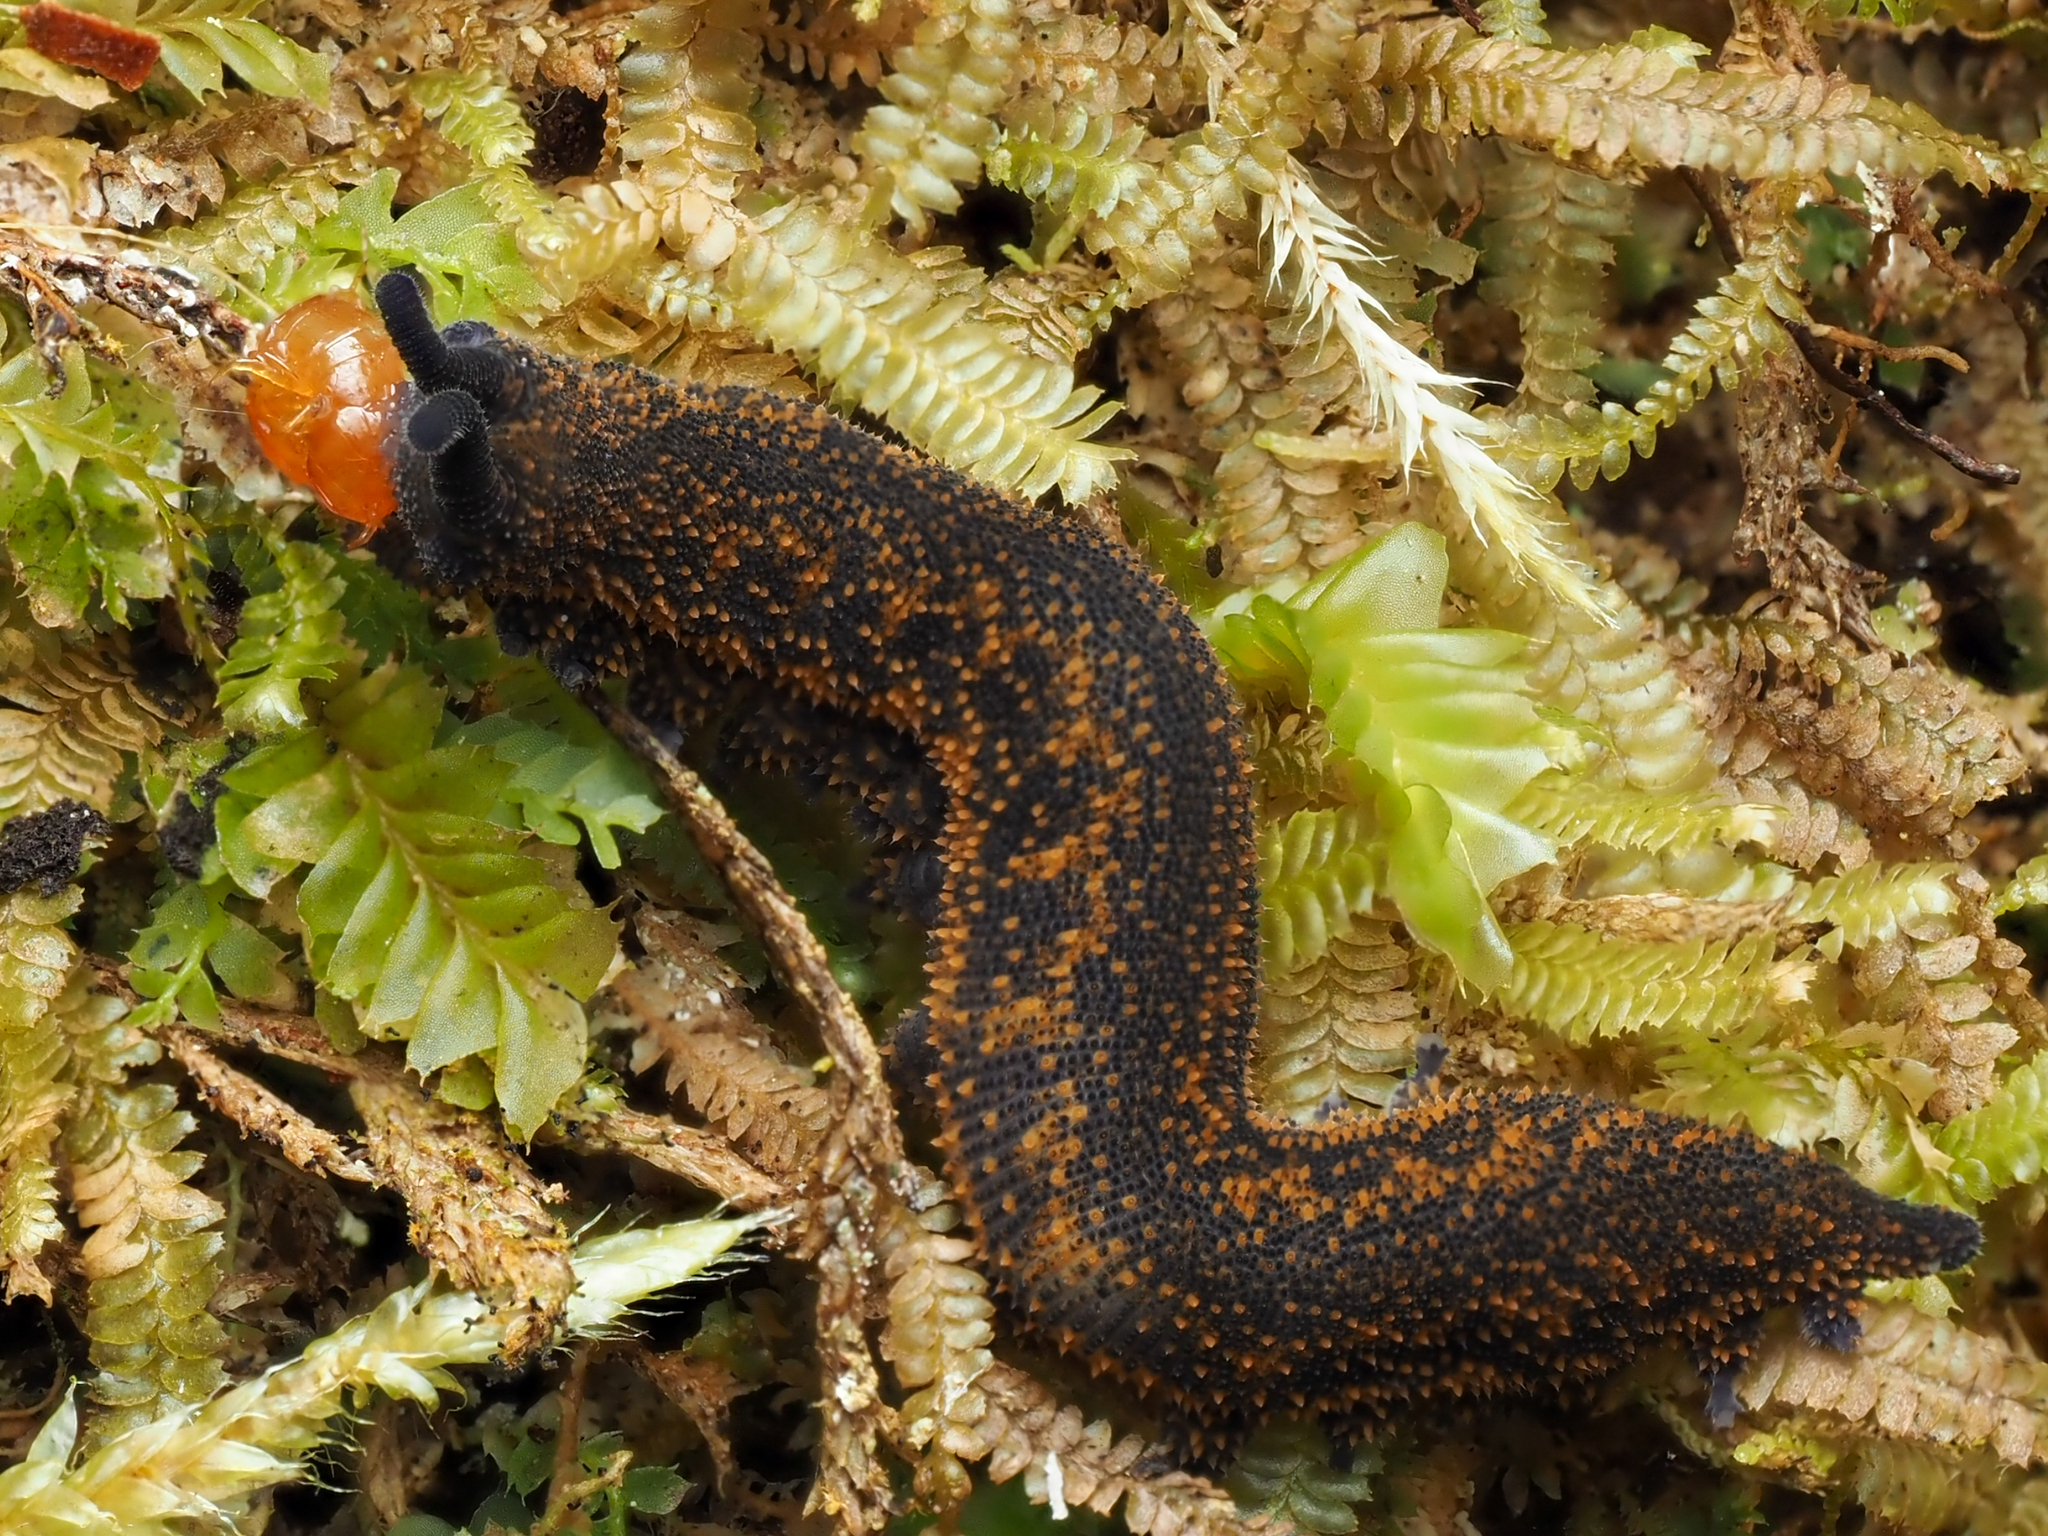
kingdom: Animalia
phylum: Onychophora
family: Peripatopsidae
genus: Peripatoides
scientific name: Peripatoides suteri
